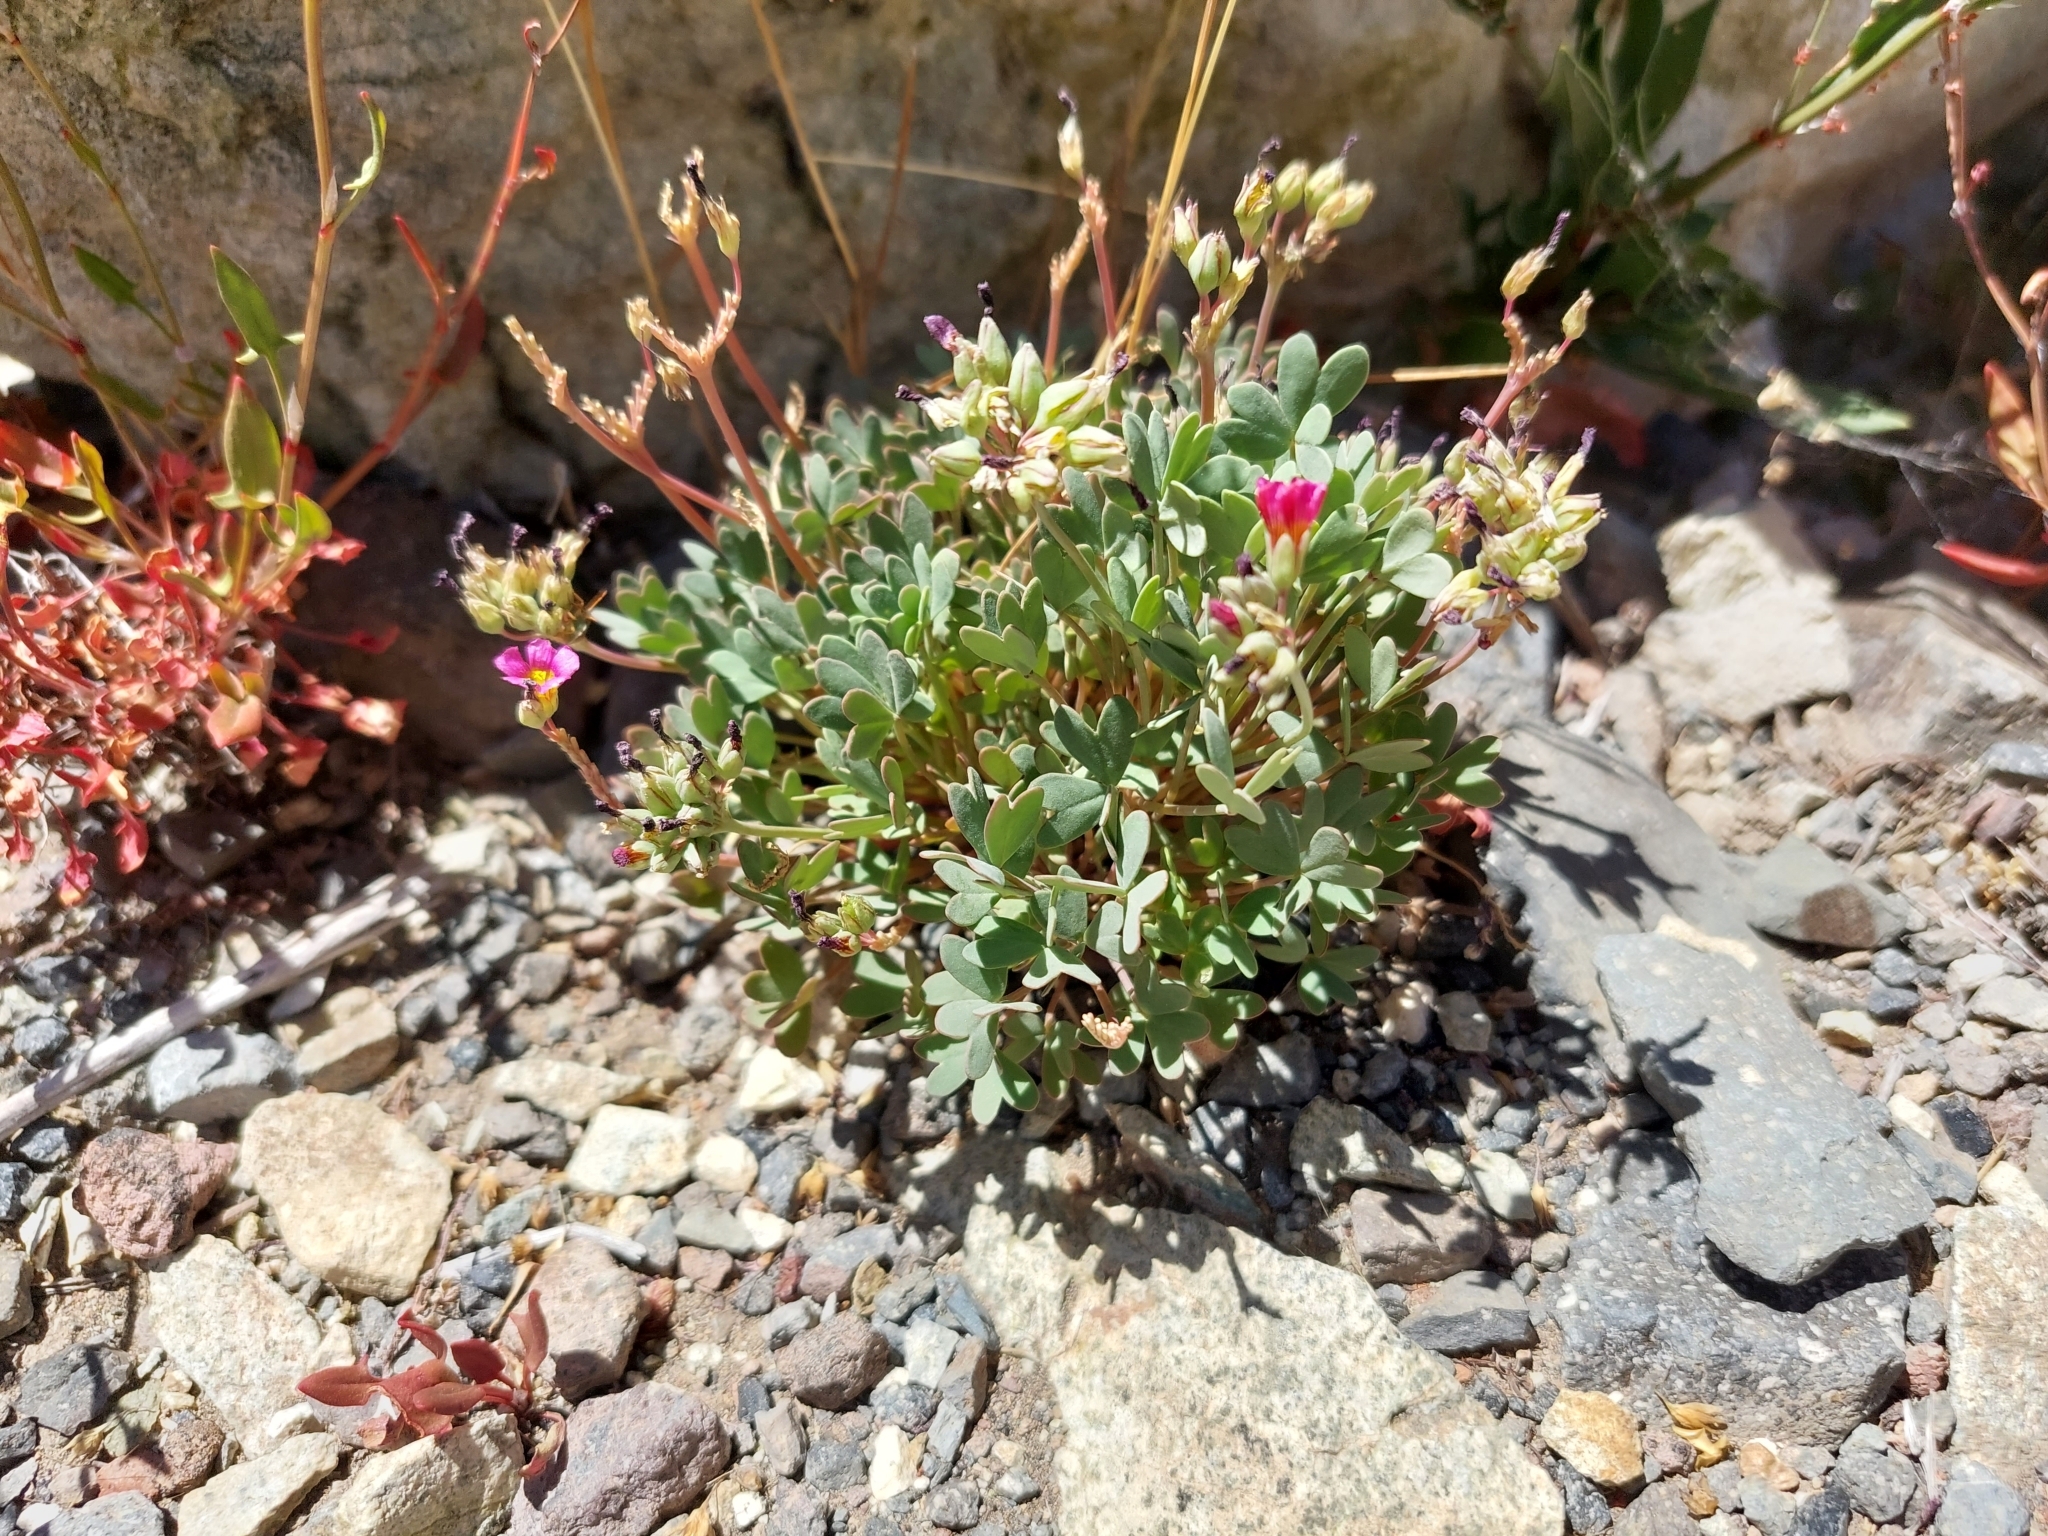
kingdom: Plantae
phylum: Tracheophyta
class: Magnoliopsida
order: Oxalidales
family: Oxalidaceae
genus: Oxalis
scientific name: Oxalis squamata
